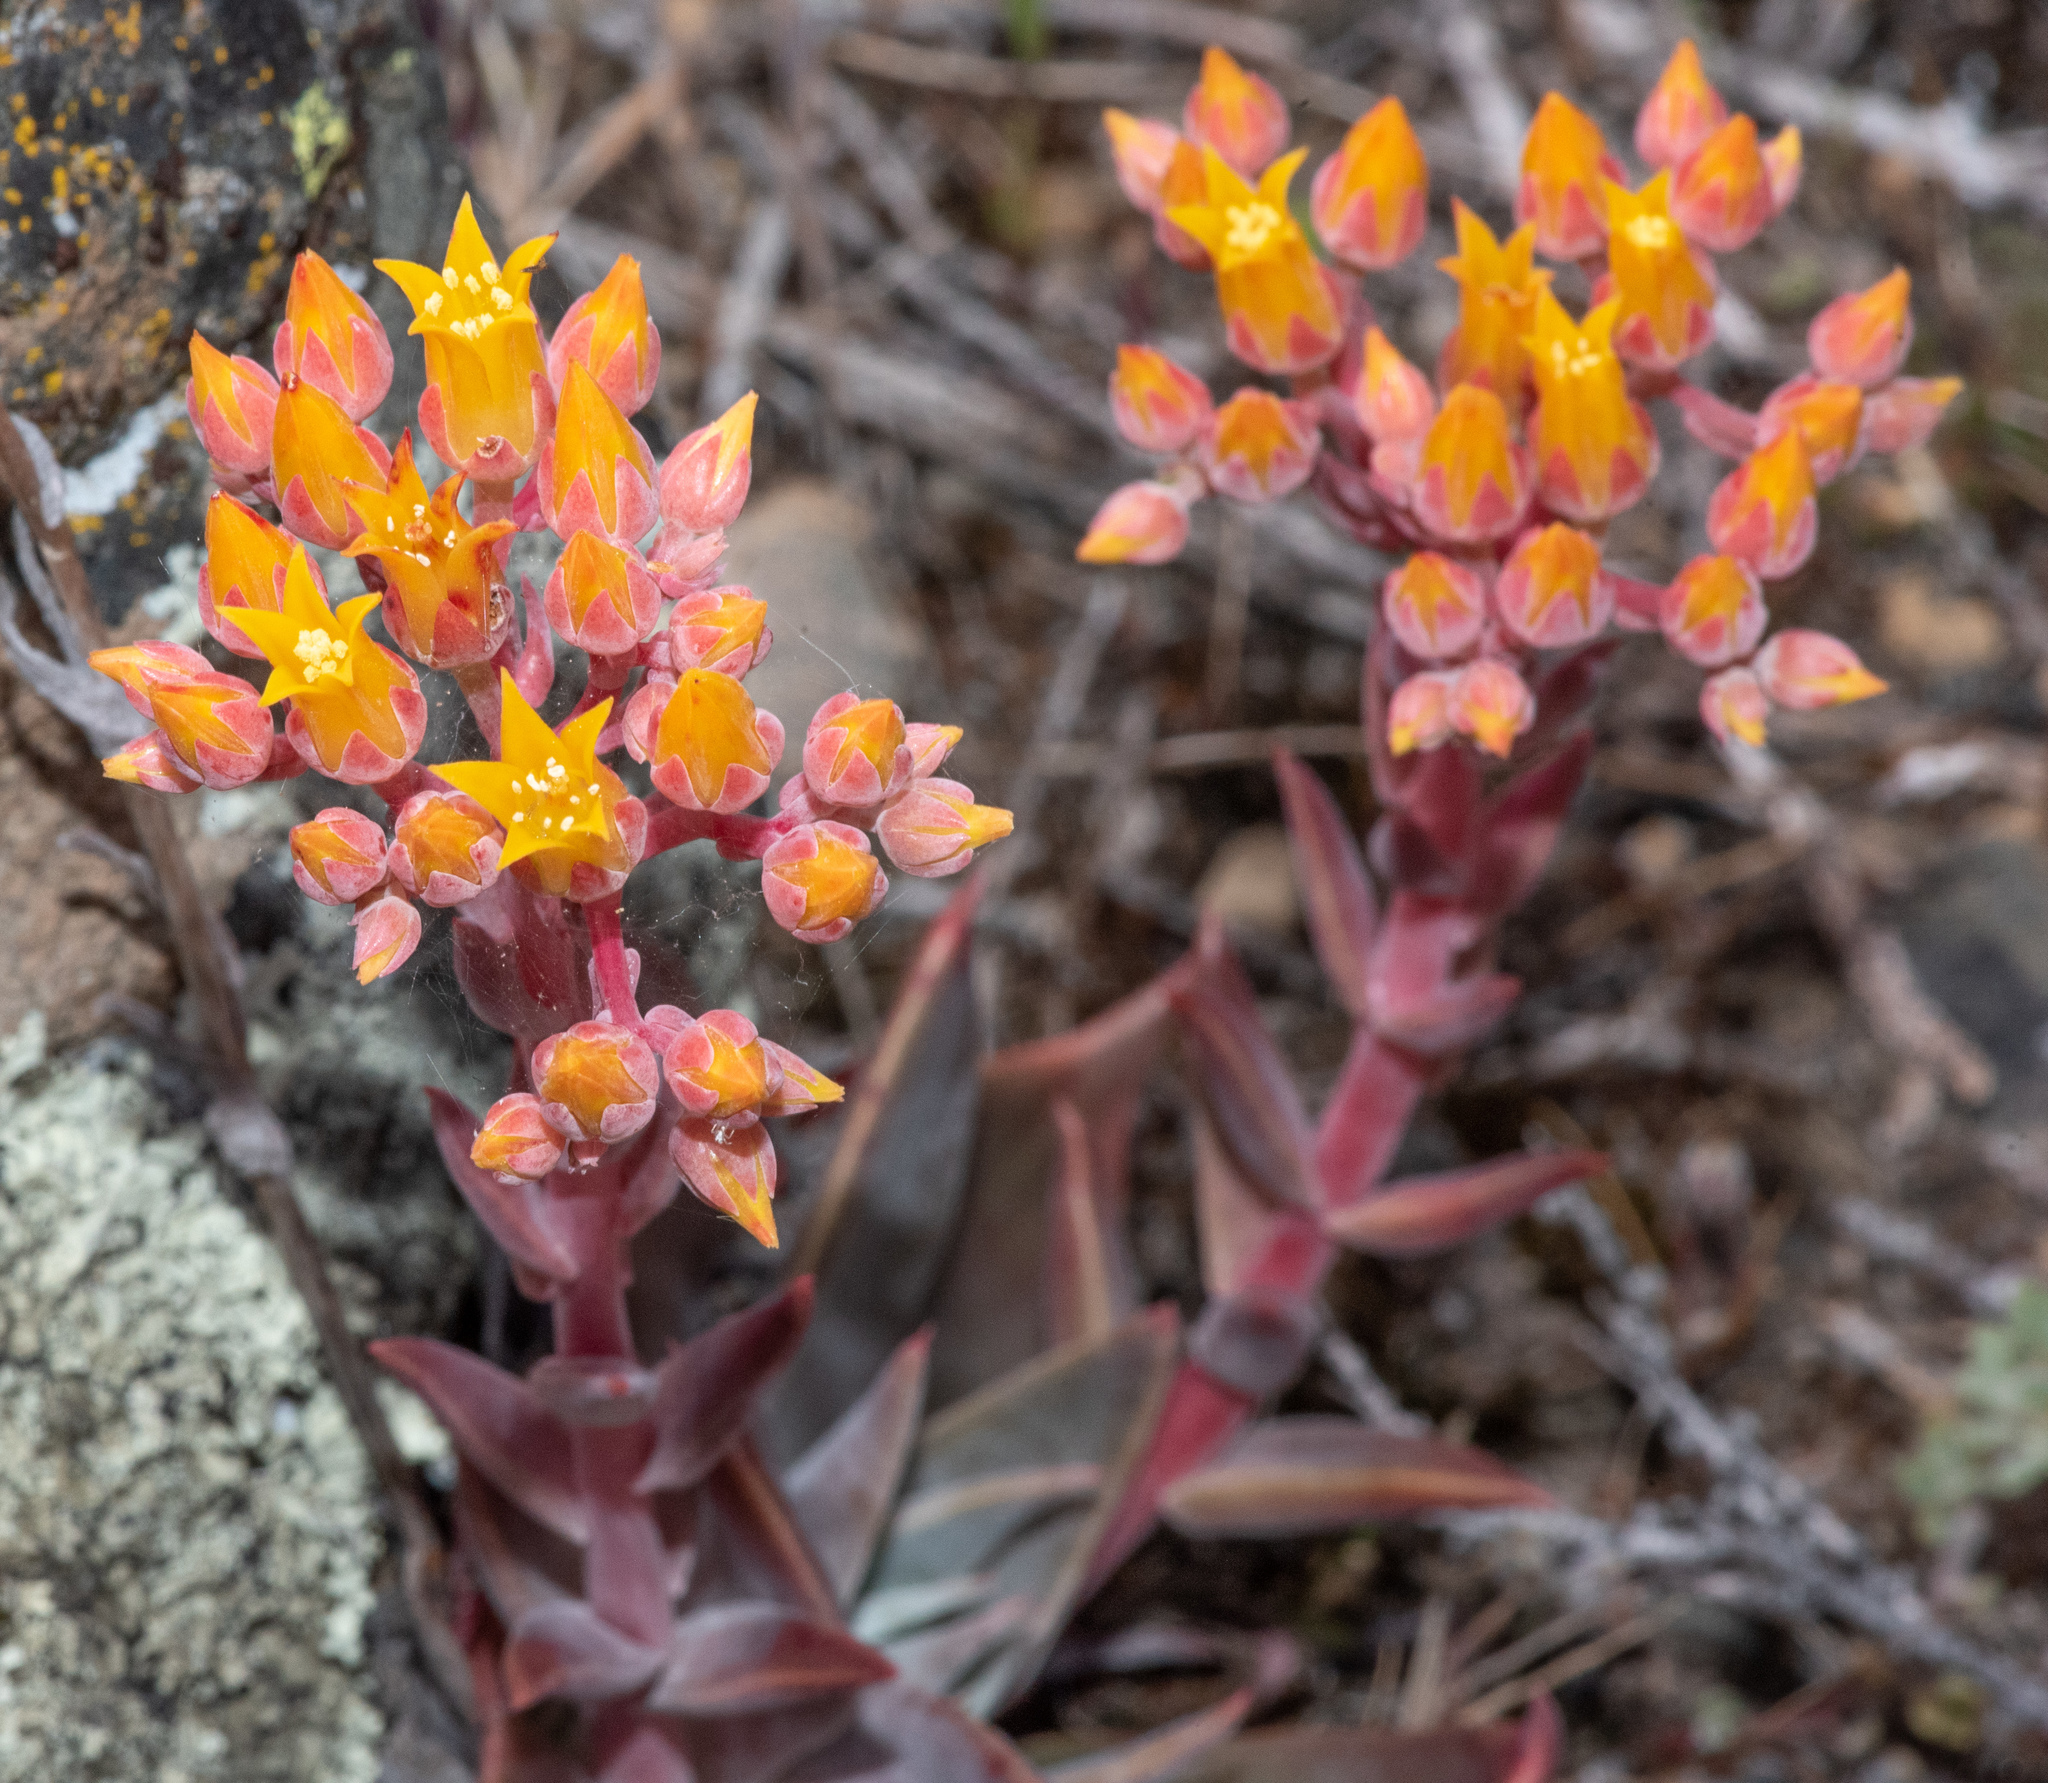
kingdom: Plantae
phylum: Tracheophyta
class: Magnoliopsida
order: Saxifragales
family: Crassulaceae
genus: Dudleya
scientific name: Dudleya cymosa
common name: Canyon dudleya
